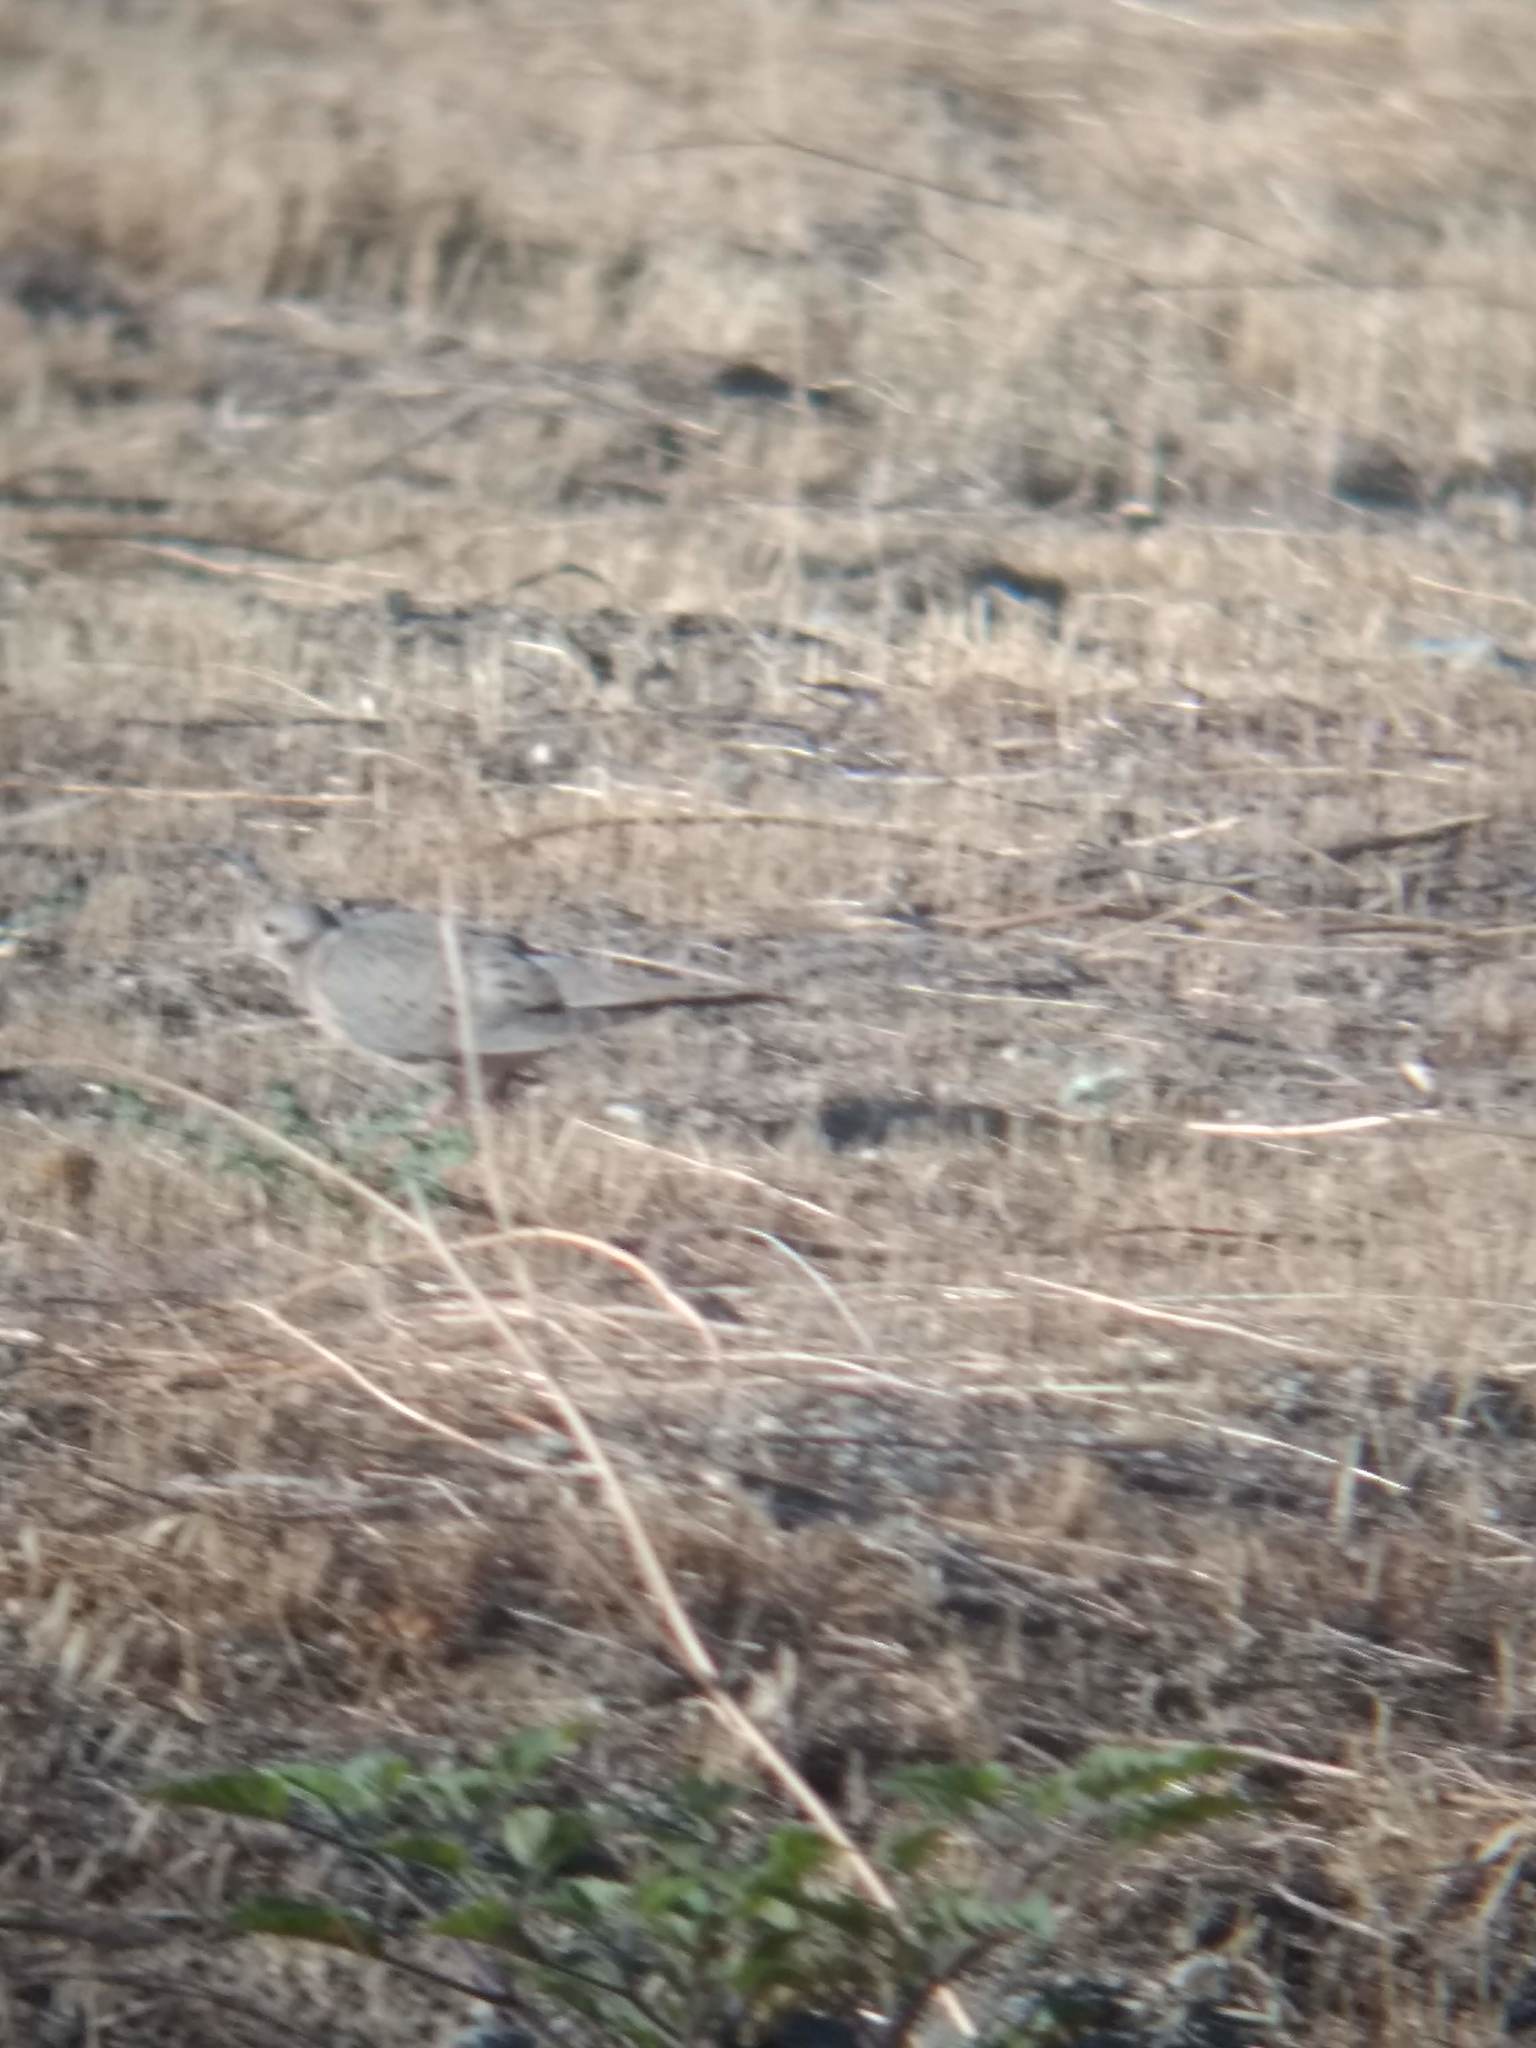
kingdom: Animalia
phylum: Chordata
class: Aves
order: Columbiformes
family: Columbidae
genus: Zenaida
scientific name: Zenaida macroura
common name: Mourning dove
